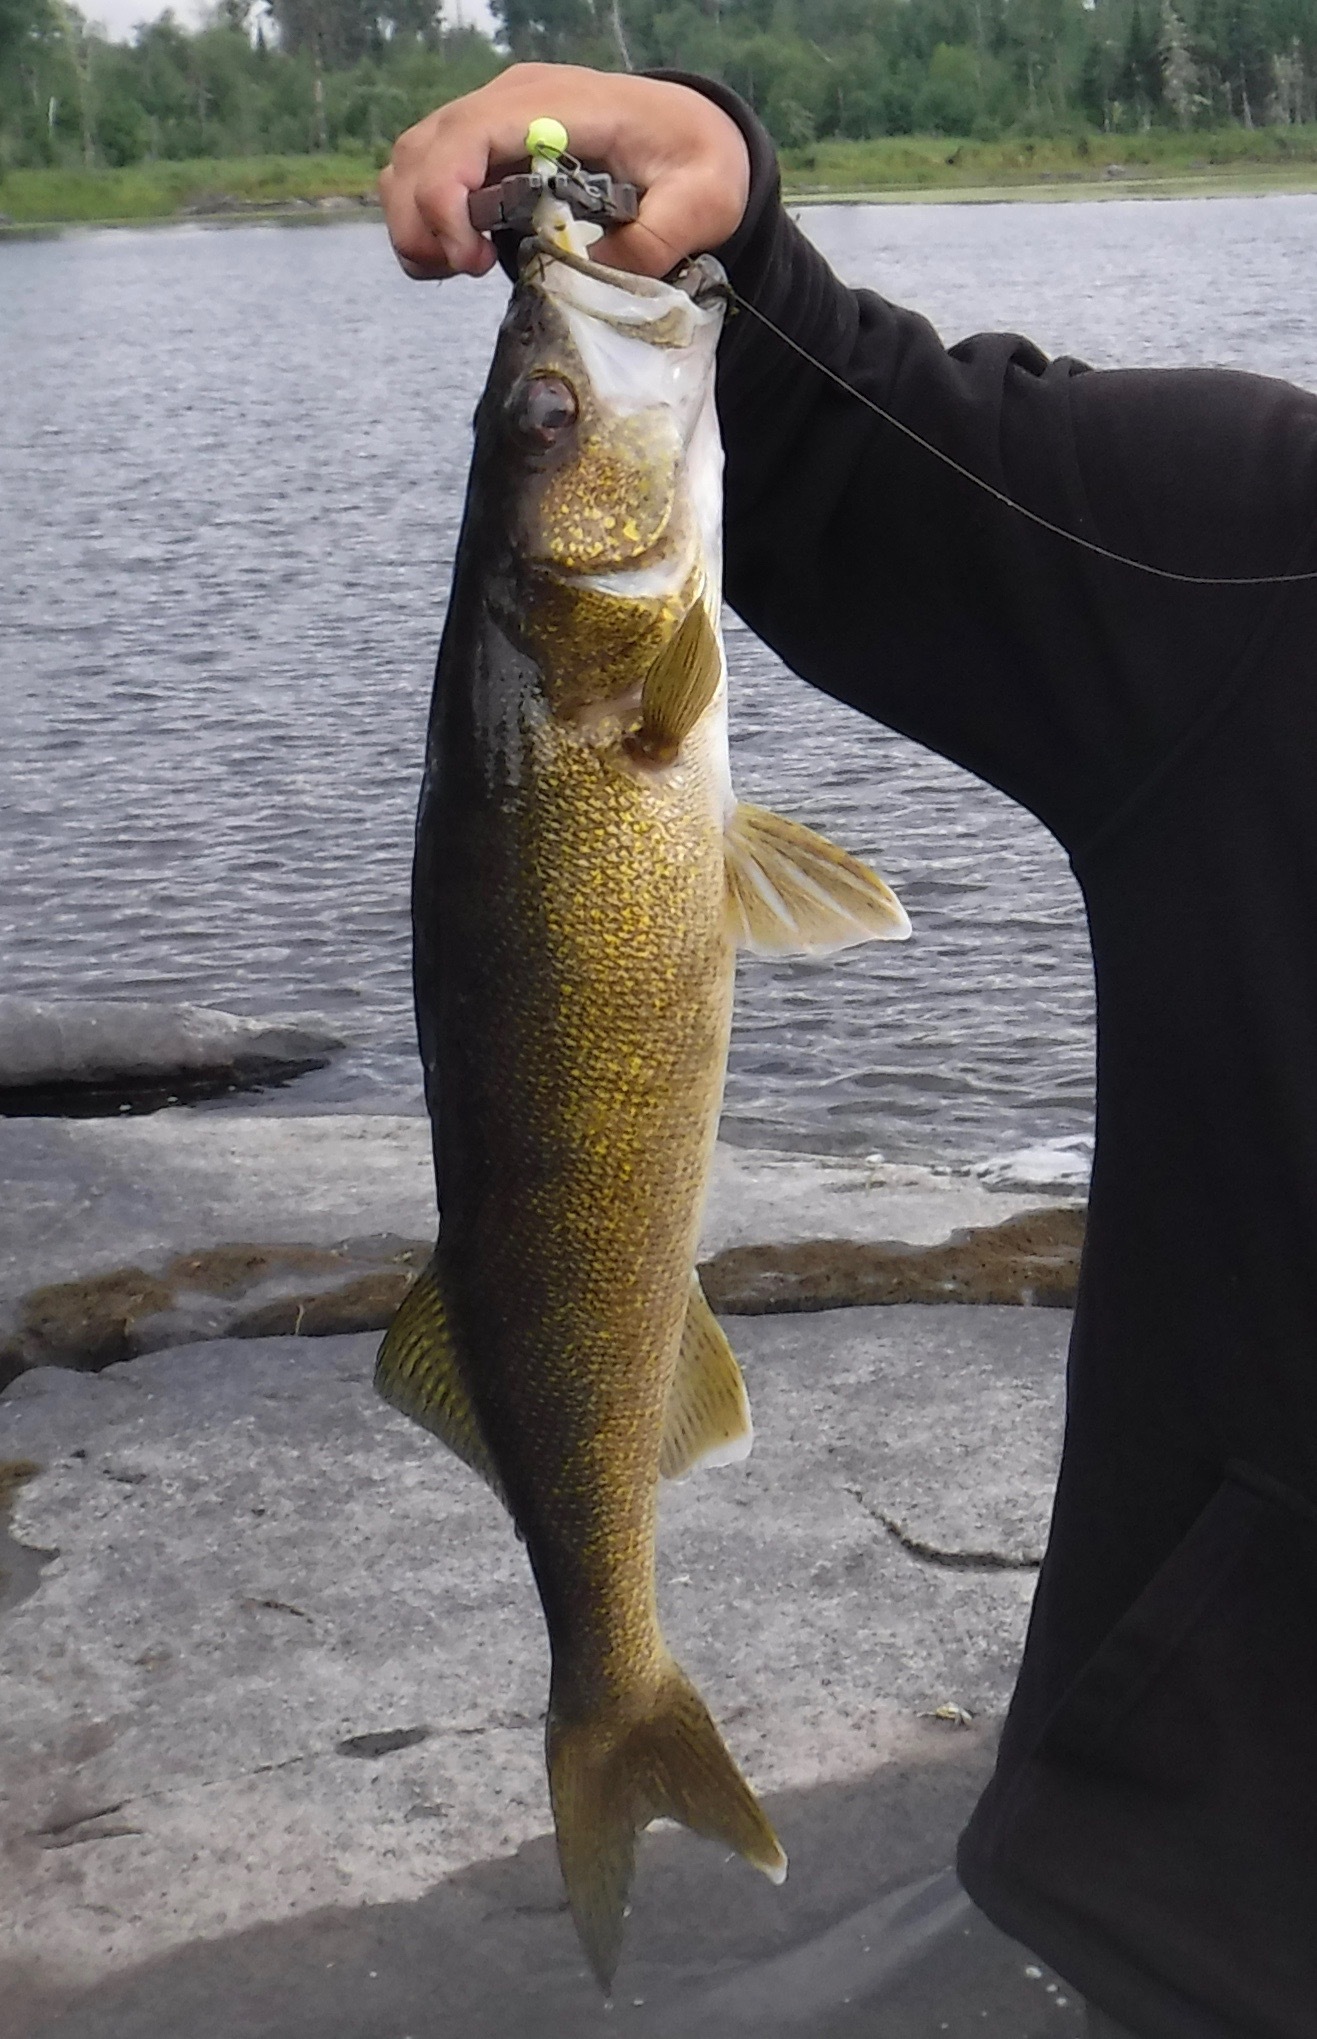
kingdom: Animalia
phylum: Chordata
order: Perciformes
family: Percidae
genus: Sander
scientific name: Sander vitreus
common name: Walleye
